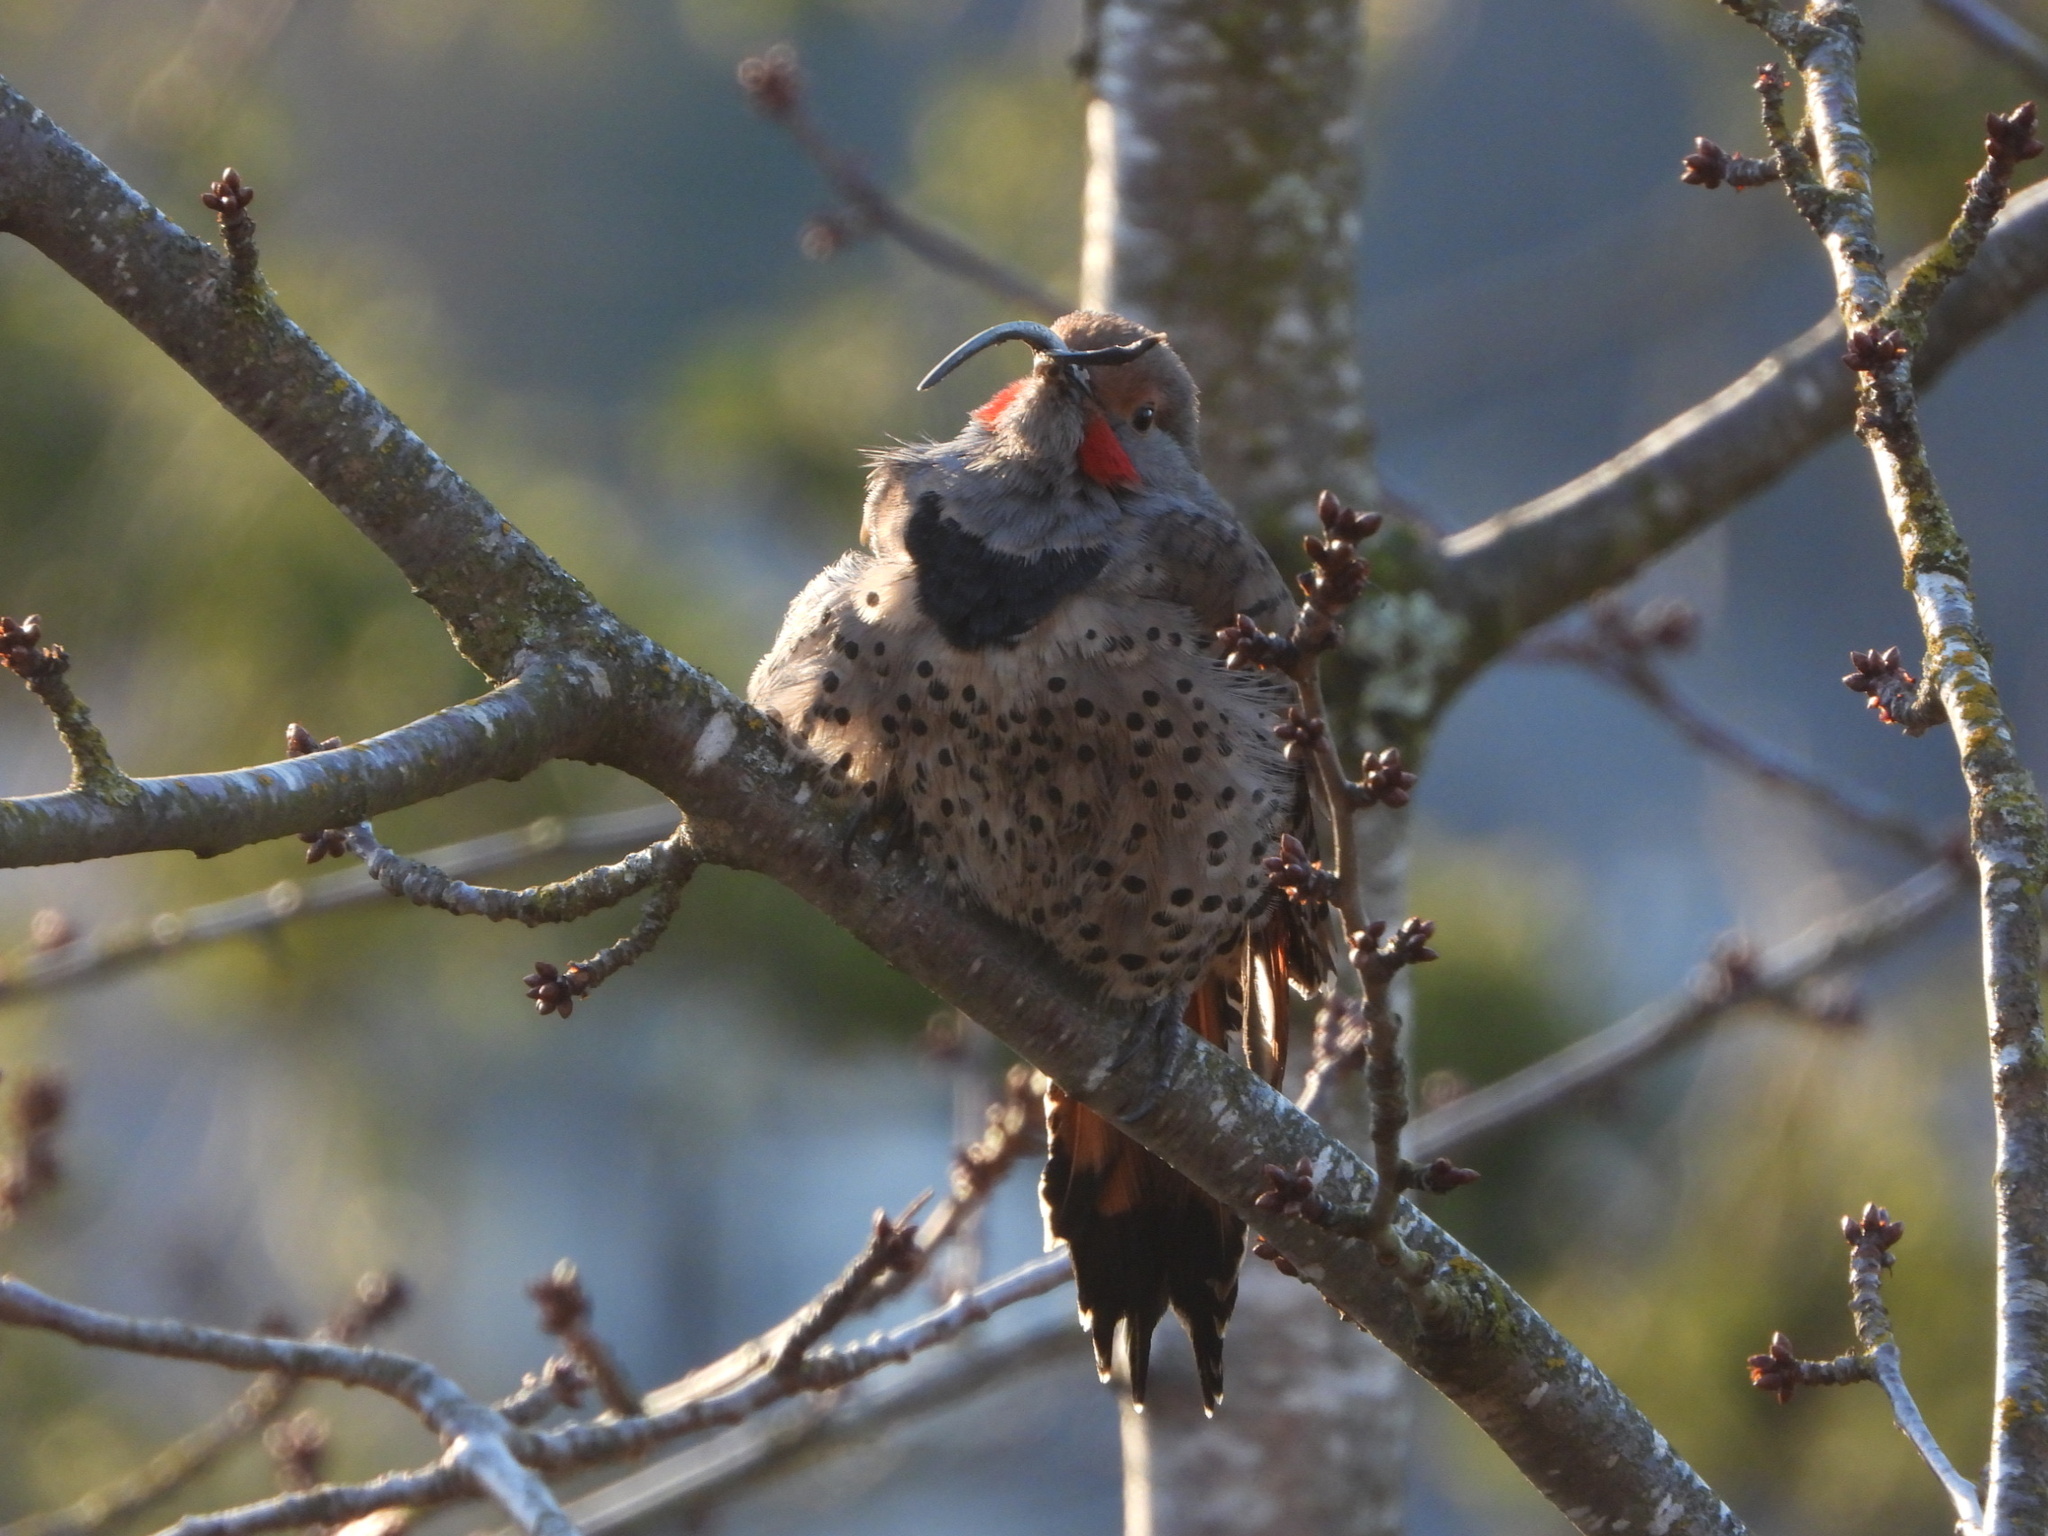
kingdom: Animalia
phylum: Chordata
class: Aves
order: Piciformes
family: Picidae
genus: Colaptes
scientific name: Colaptes auratus
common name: Northern flicker
